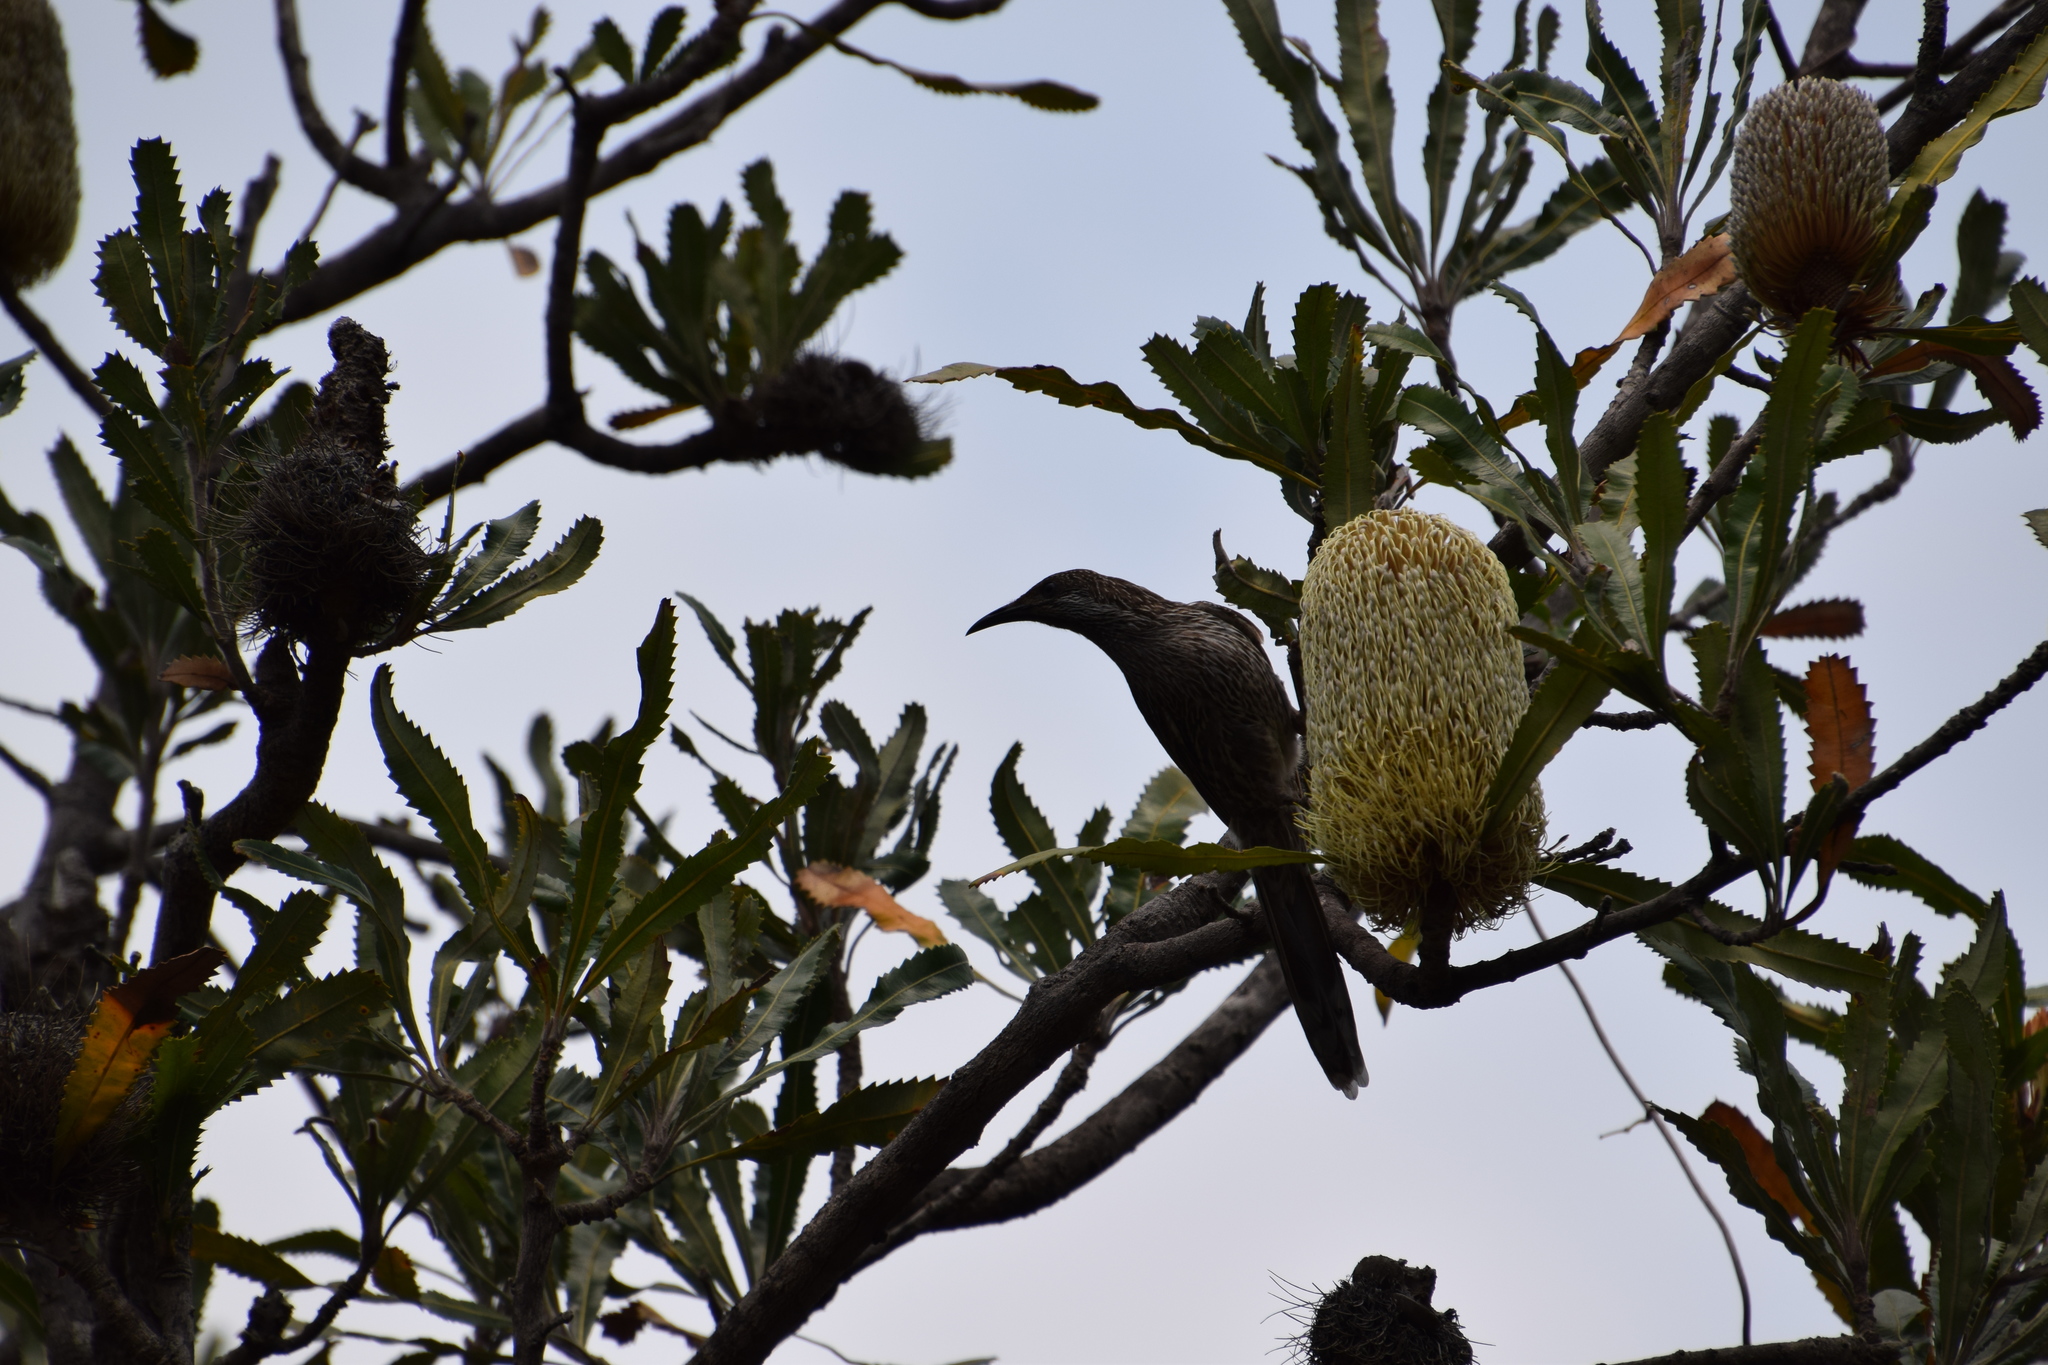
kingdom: Animalia
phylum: Chordata
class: Aves
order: Passeriformes
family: Meliphagidae
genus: Anthochaera
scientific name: Anthochaera chrysoptera
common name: Little wattlebird
